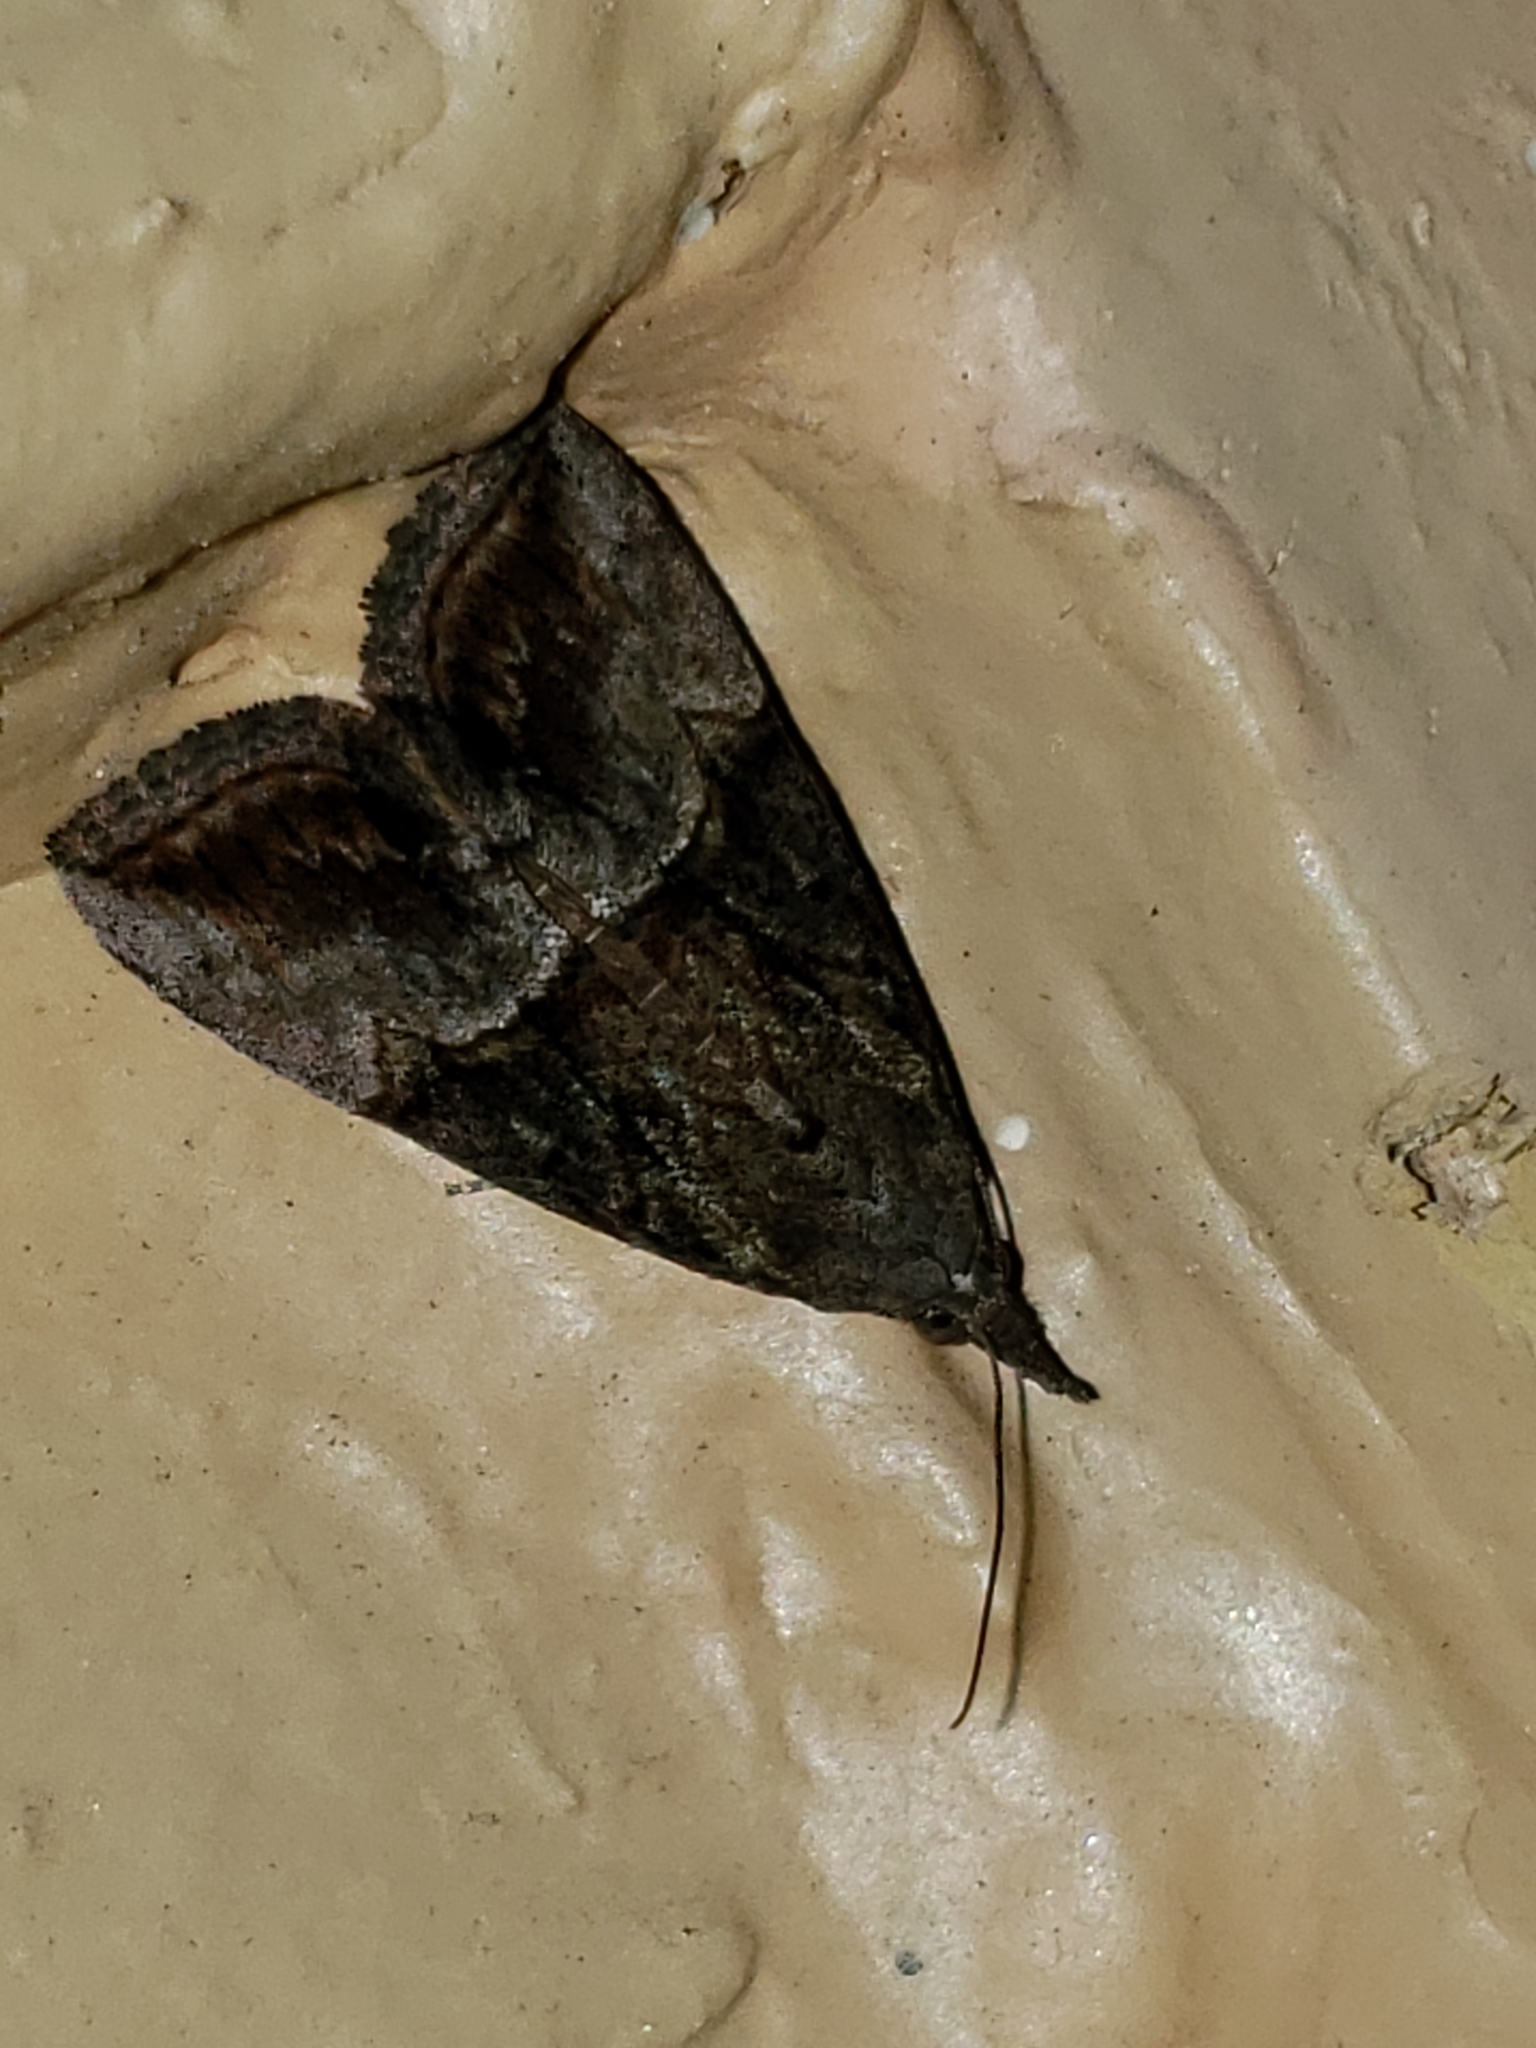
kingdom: Animalia
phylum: Arthropoda
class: Insecta
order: Lepidoptera
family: Erebidae
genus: Hypena
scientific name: Hypena scabra
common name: Green cloverworm
